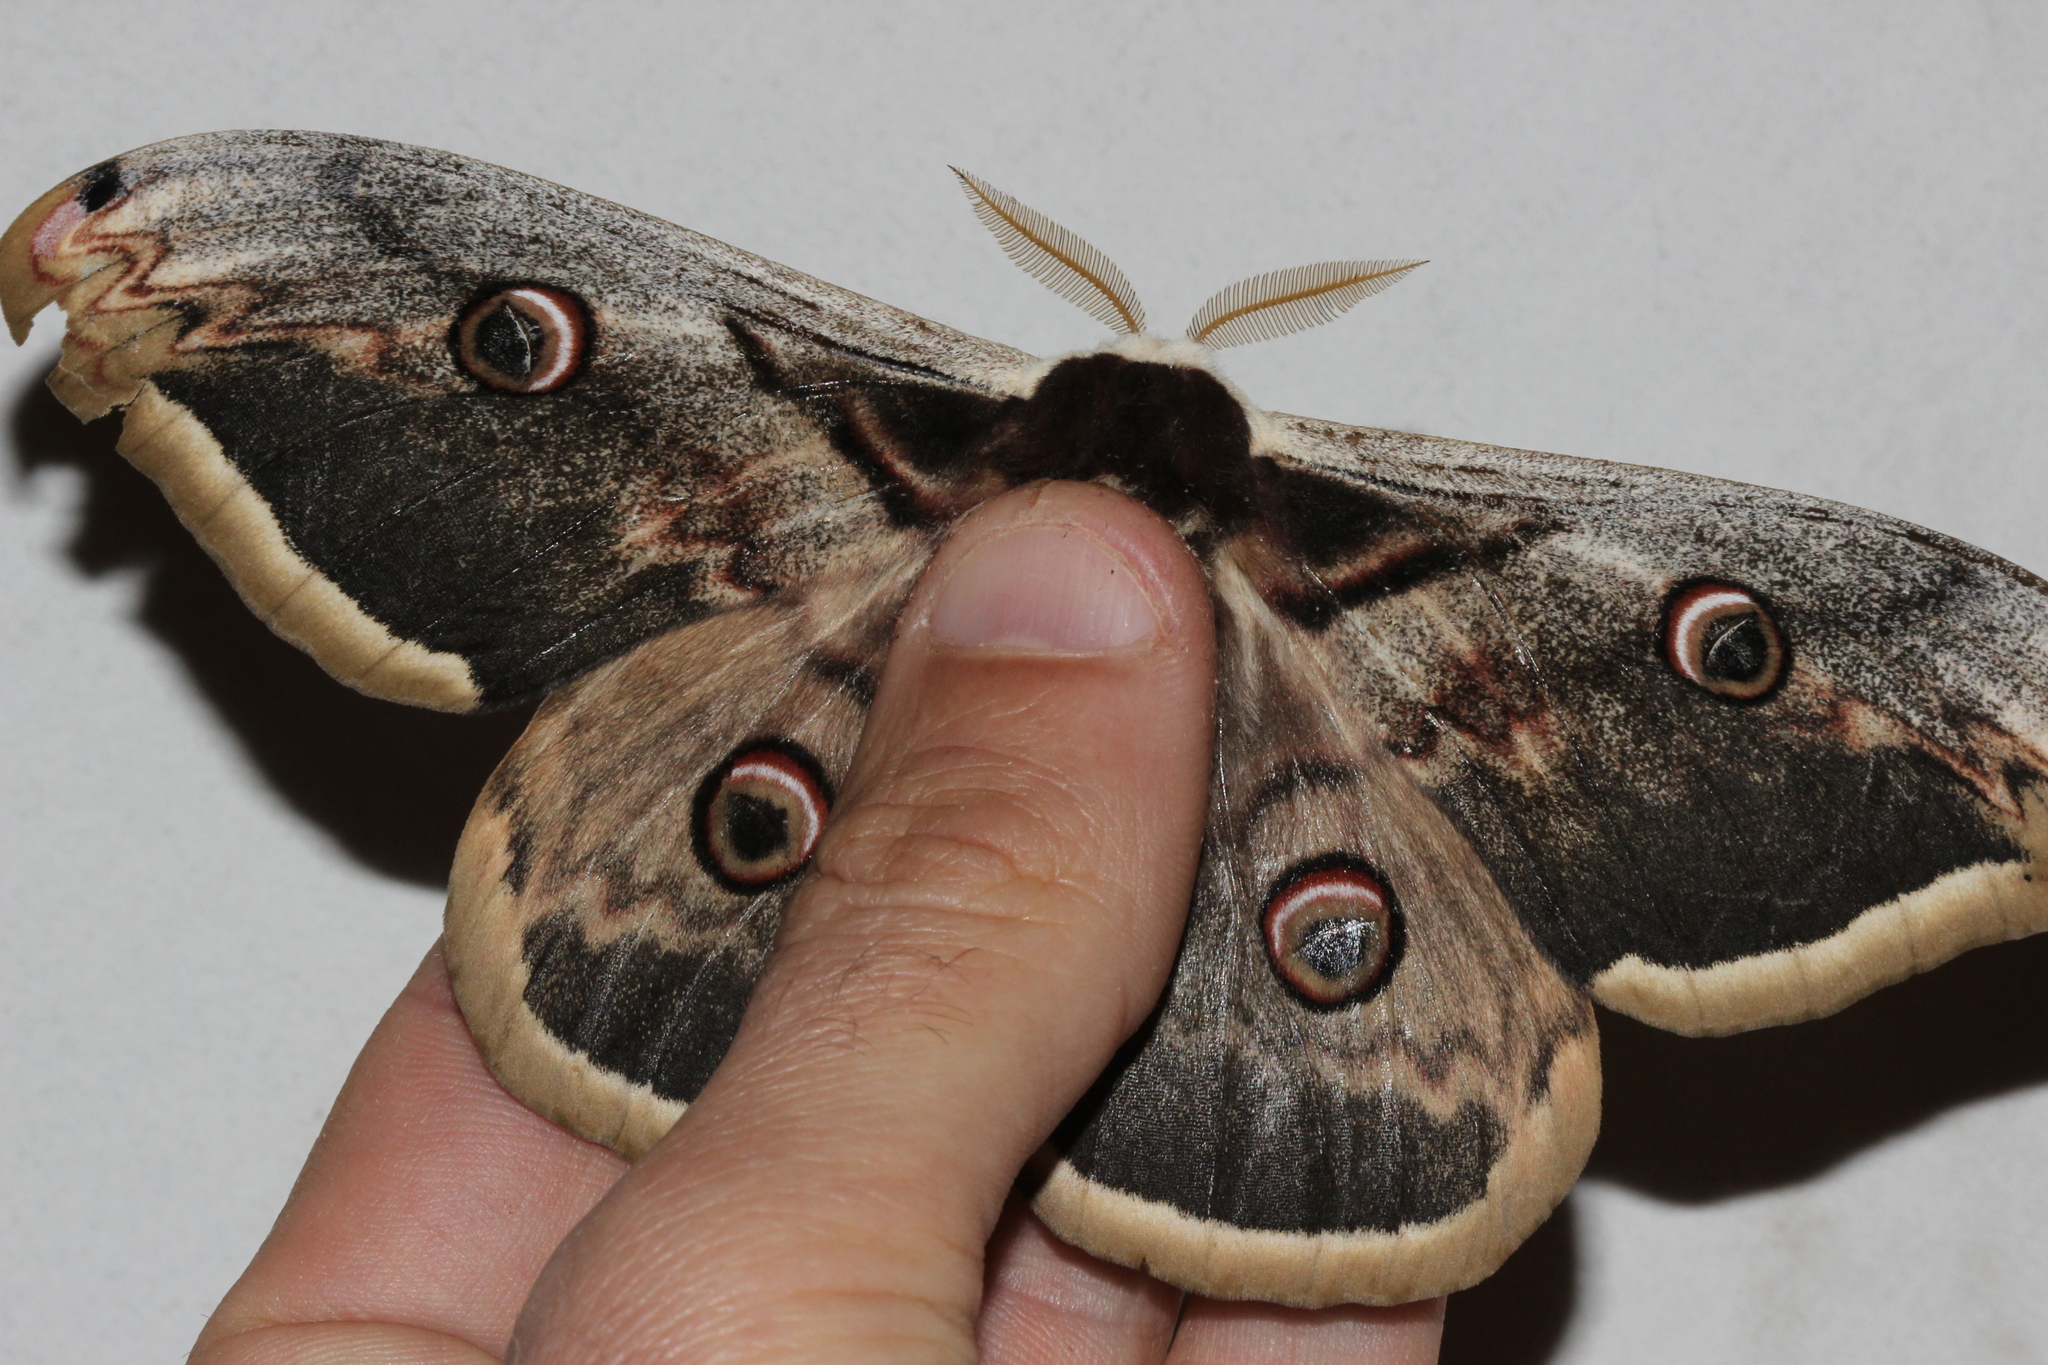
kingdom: Animalia
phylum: Arthropoda
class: Insecta
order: Lepidoptera
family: Saturniidae
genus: Saturnia
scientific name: Saturnia pyri
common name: Great peacock moth
